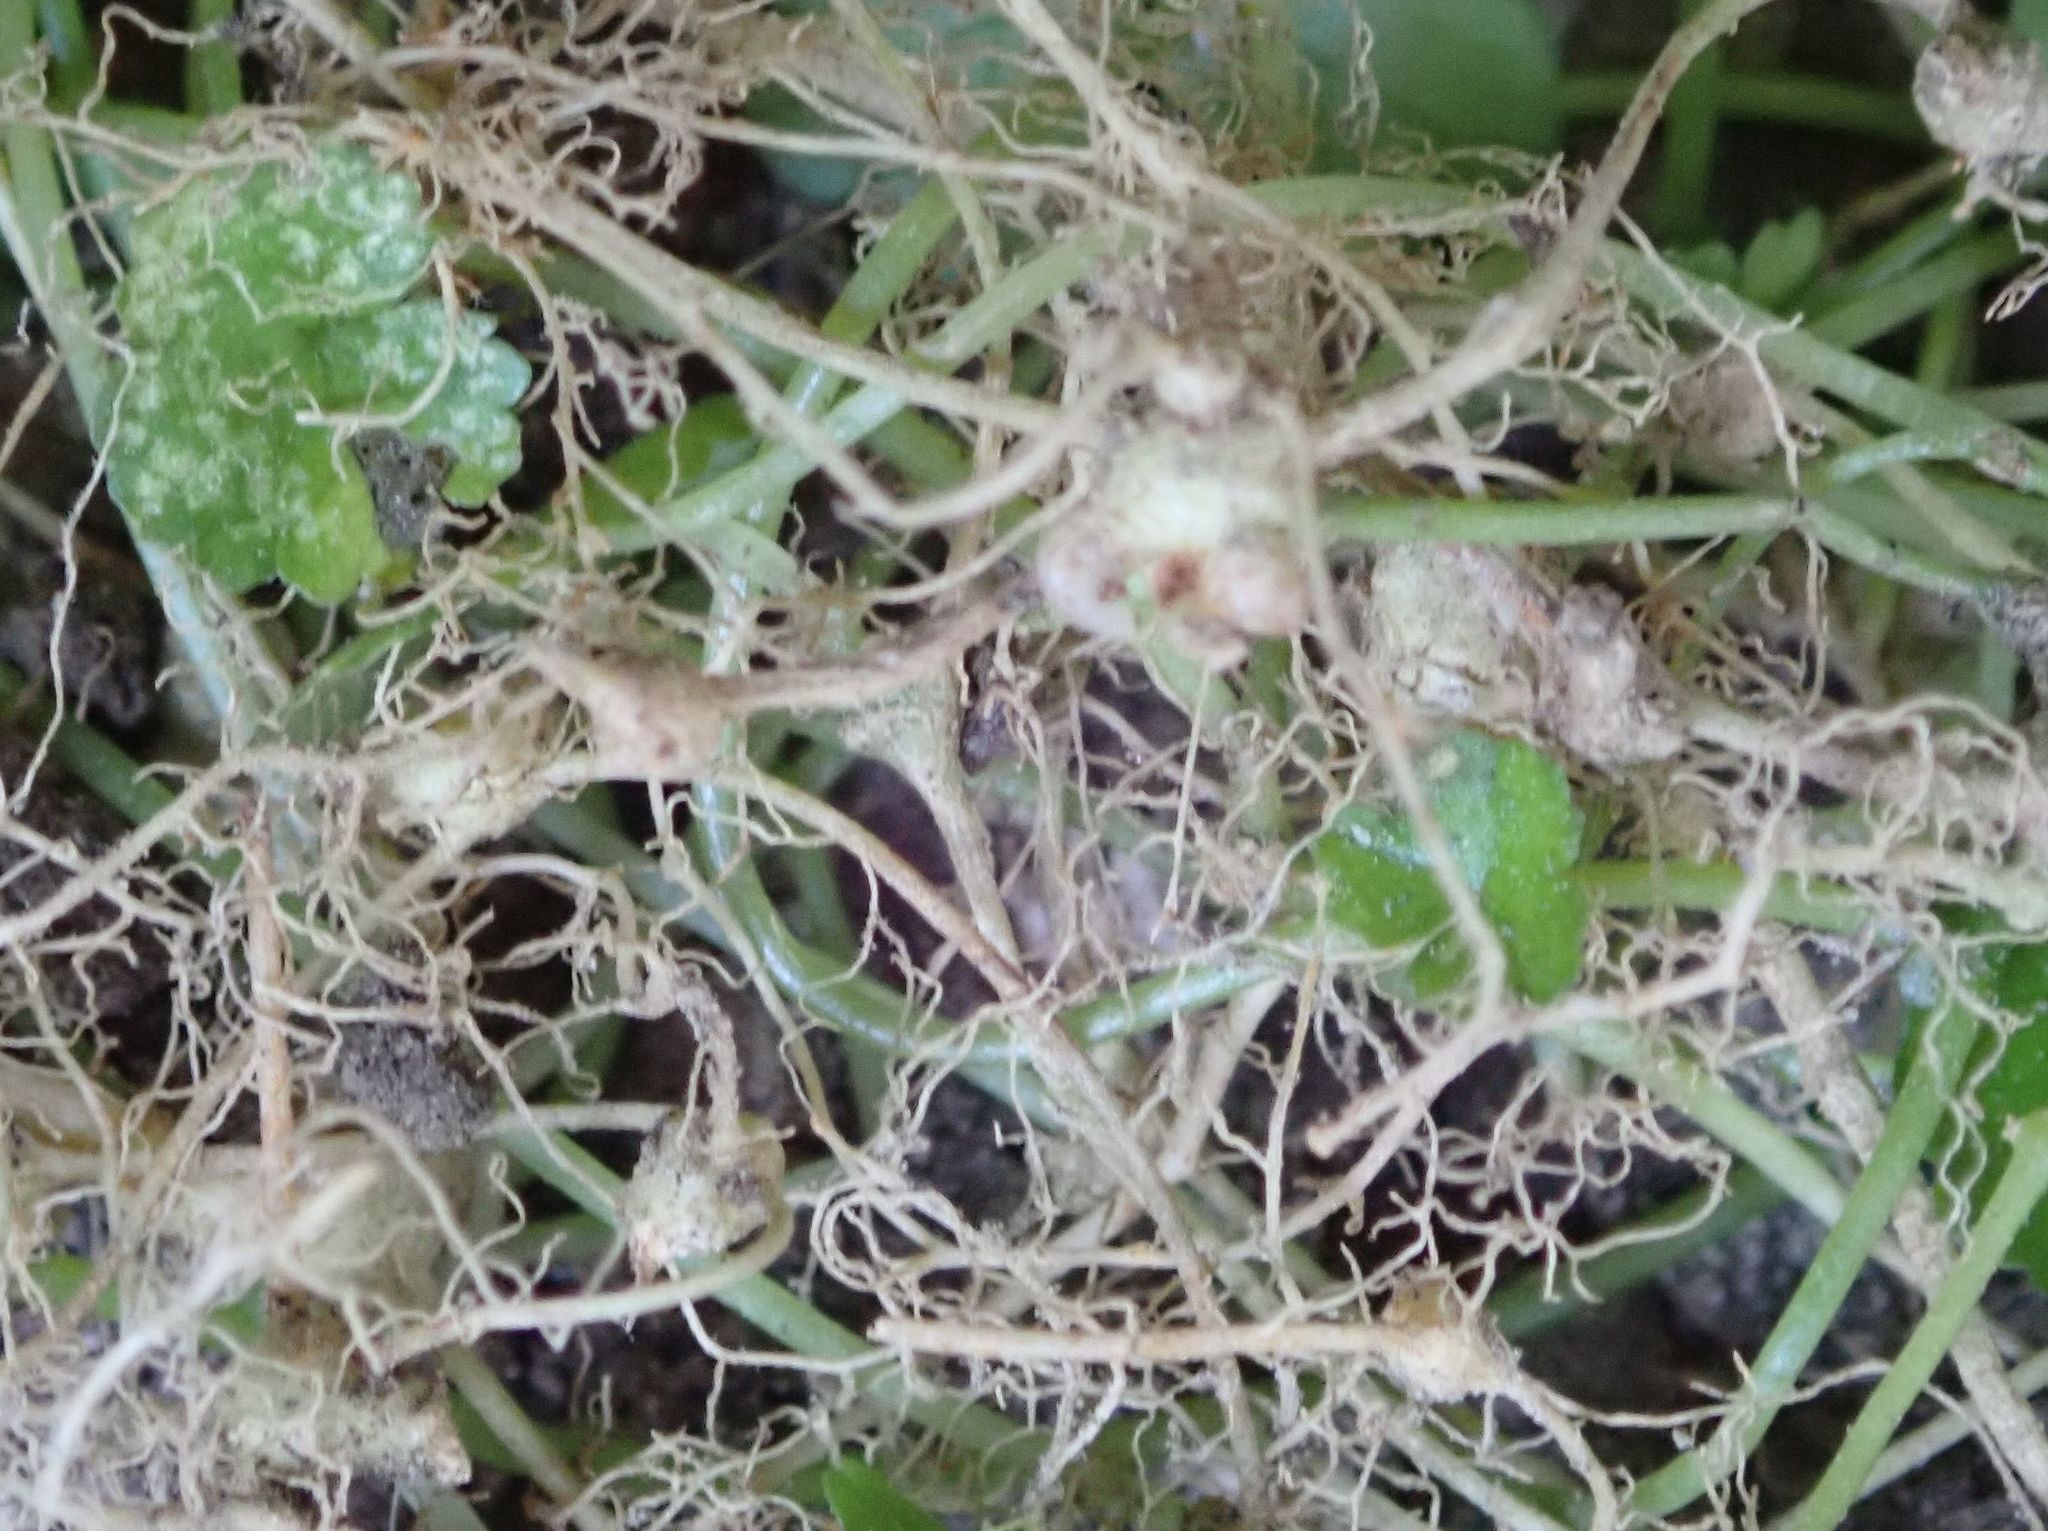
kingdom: Plantae
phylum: Tracheophyta
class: Magnoliopsida
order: Apiales
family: Araliaceae
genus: Hydrocotyle
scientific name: Hydrocotyle heteromeria
